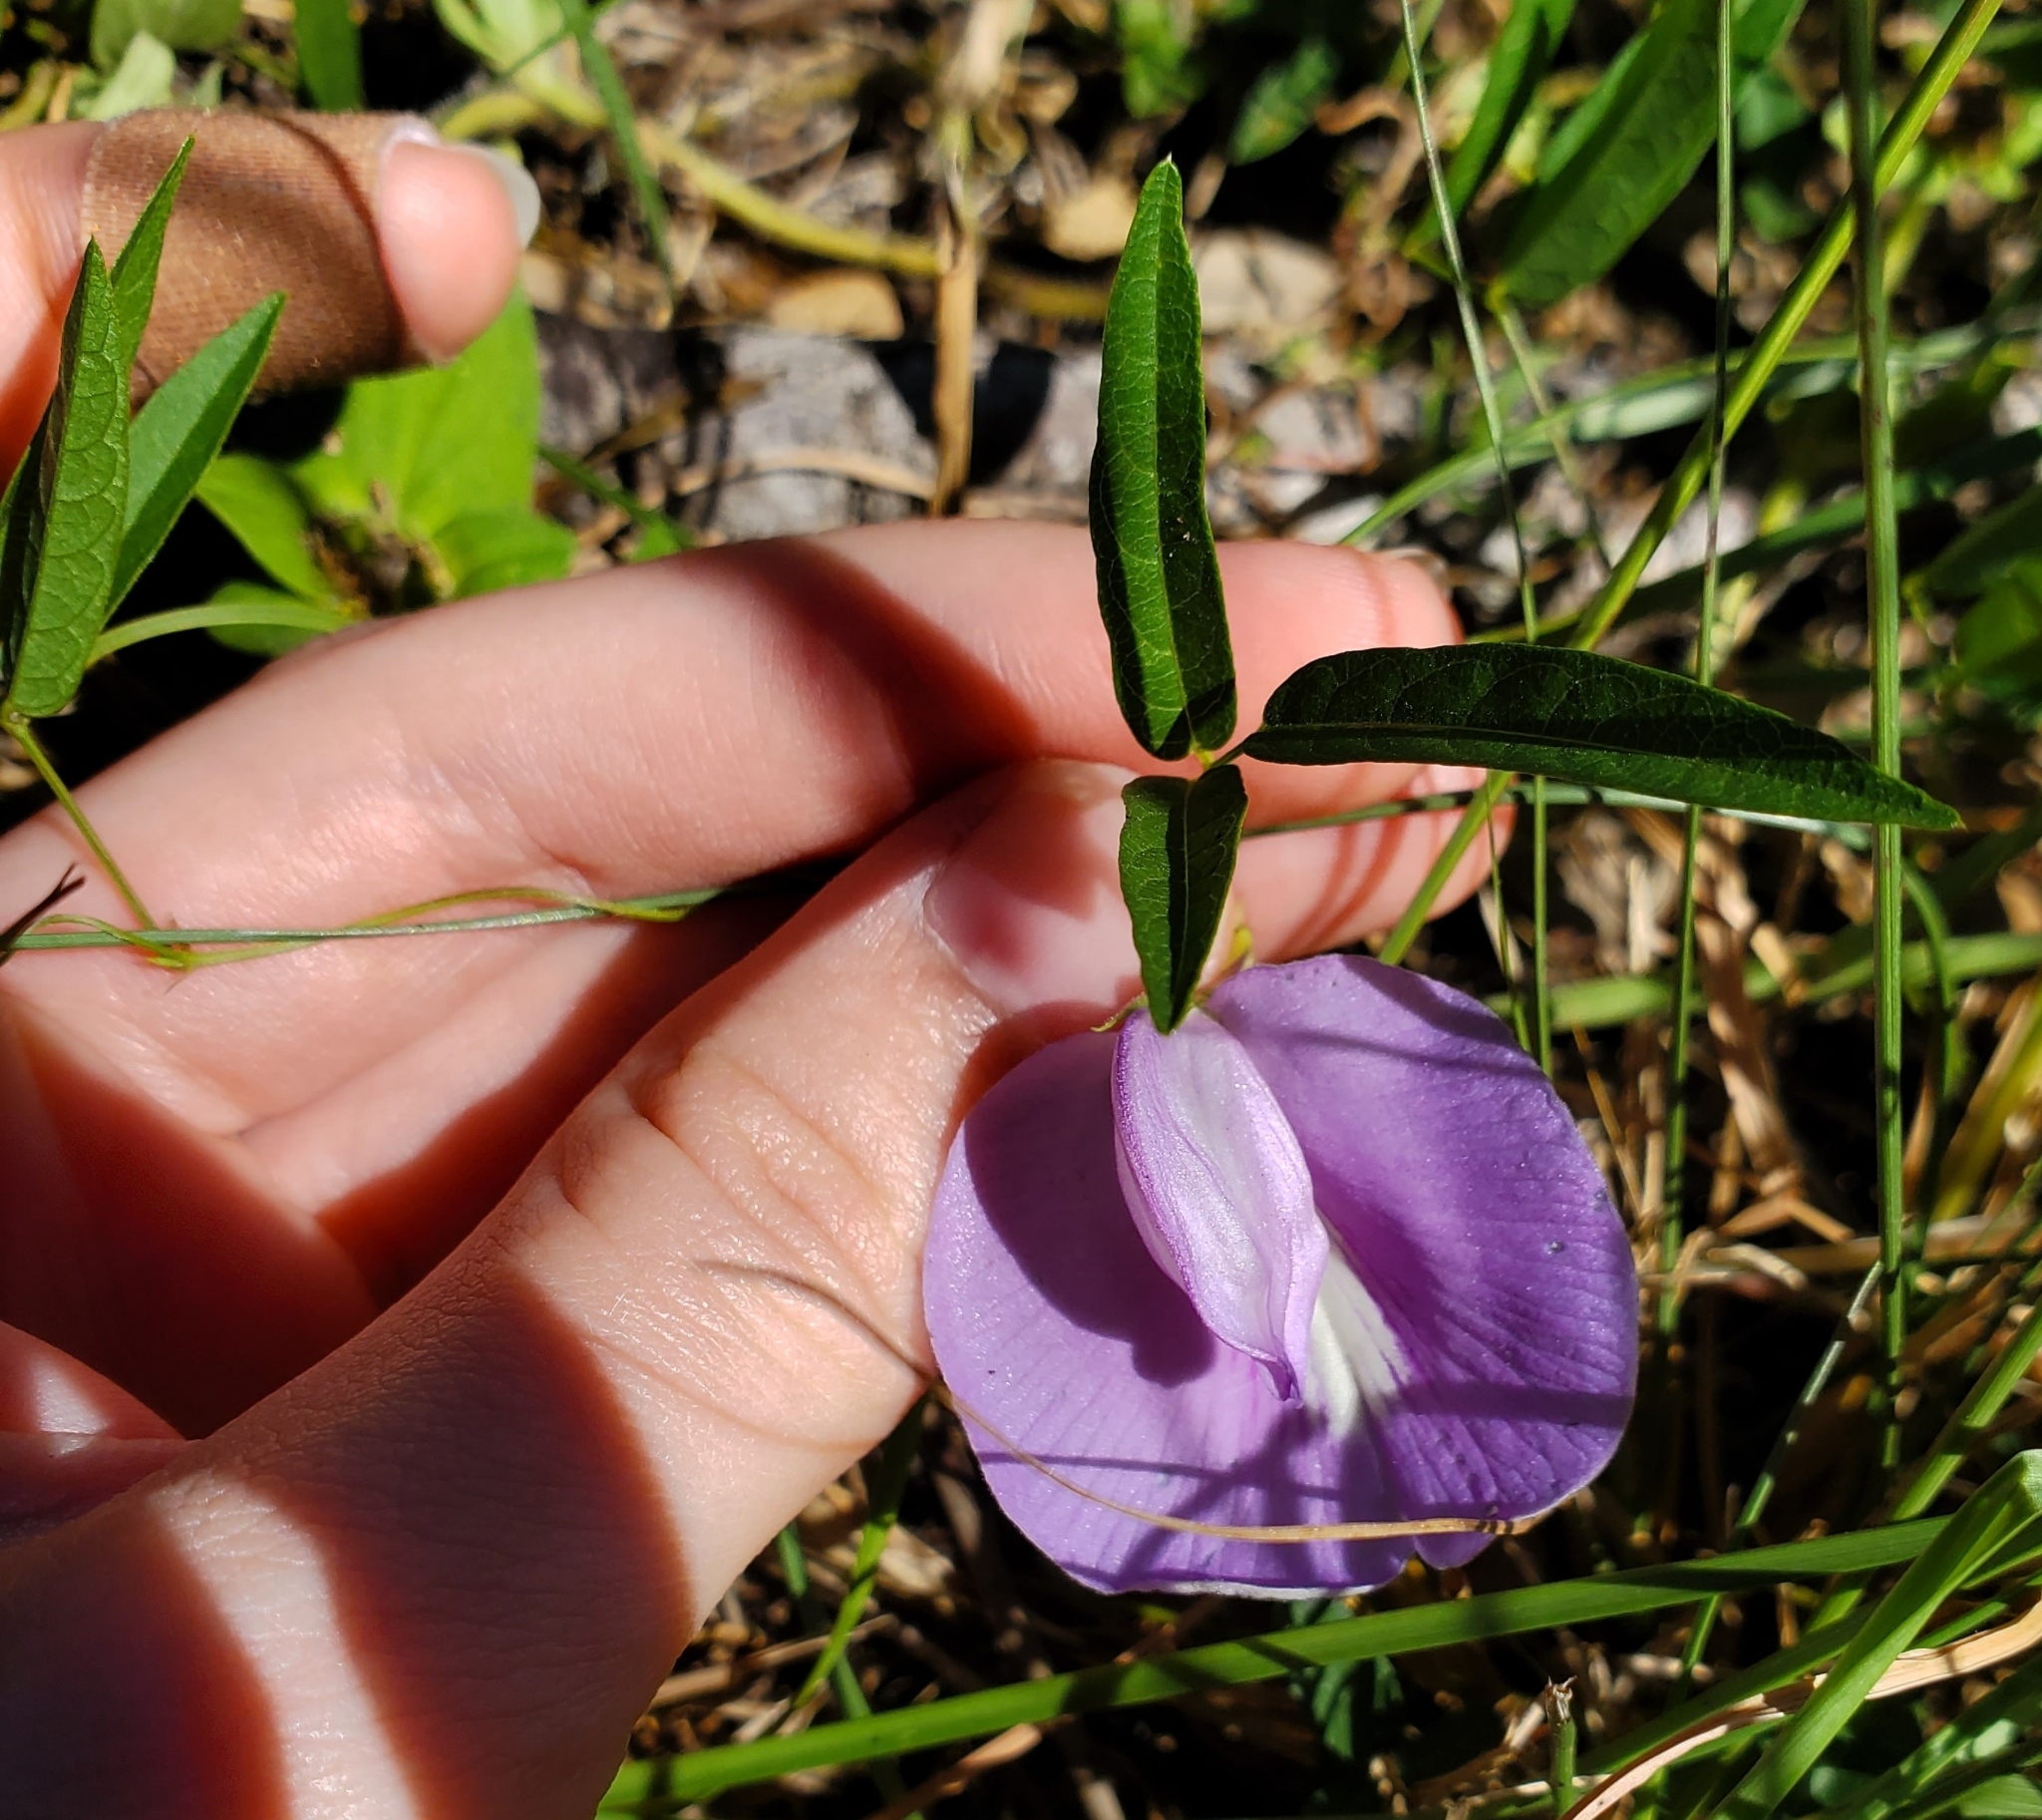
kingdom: Plantae
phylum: Tracheophyta
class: Magnoliopsida
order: Fabales
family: Fabaceae
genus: Centrosema
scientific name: Centrosema virginianum
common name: Butterfly-pea
